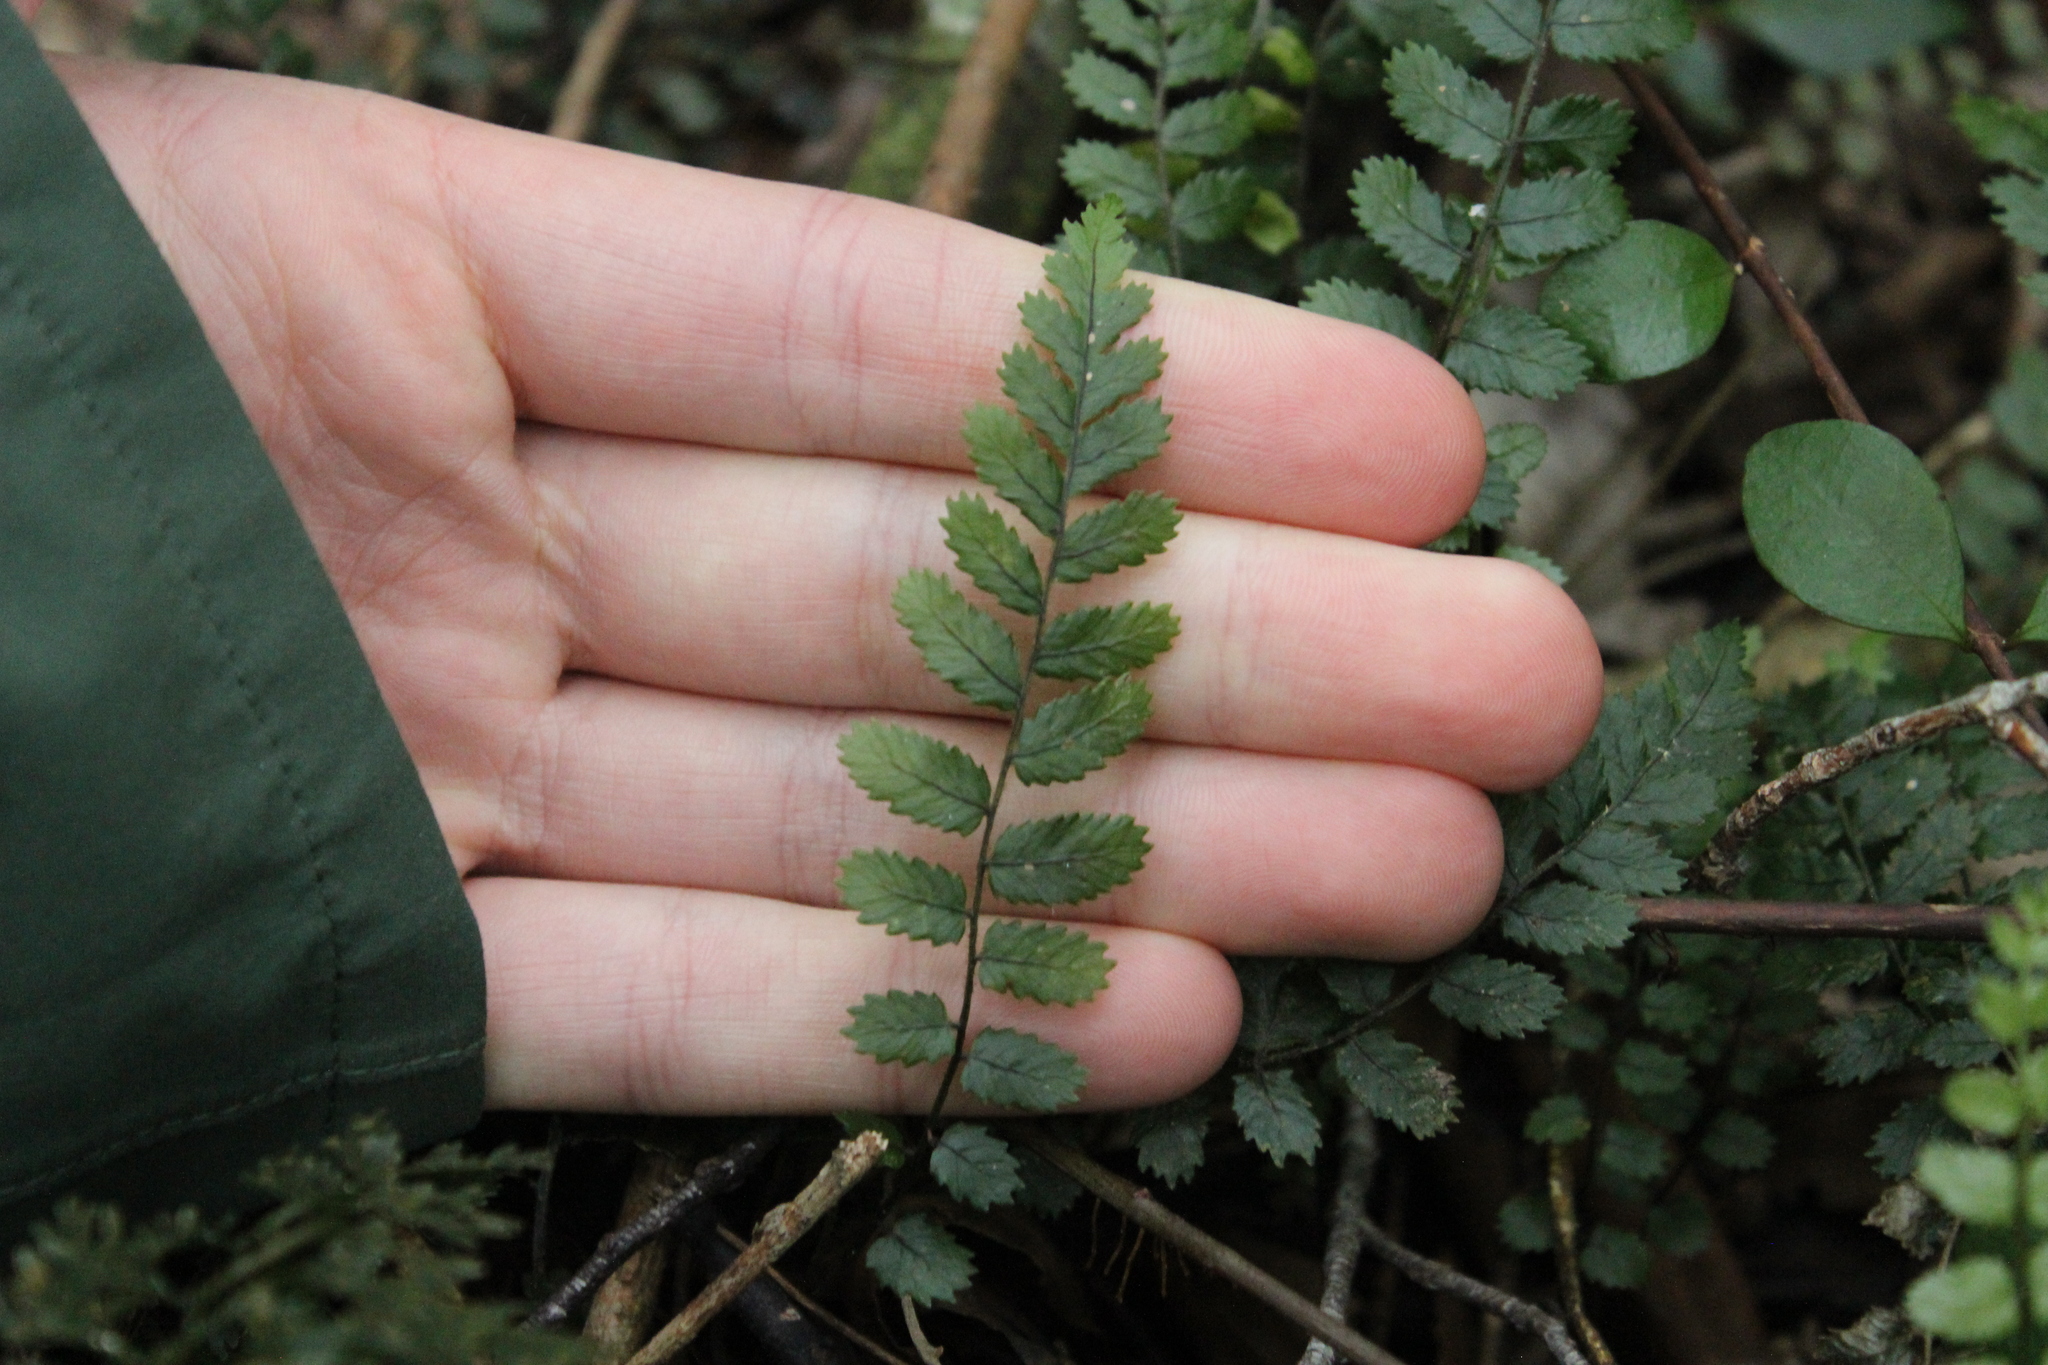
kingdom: Plantae
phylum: Tracheophyta
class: Polypodiopsida
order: Polypodiales
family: Blechnaceae
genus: Icarus
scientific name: Icarus filiformis
